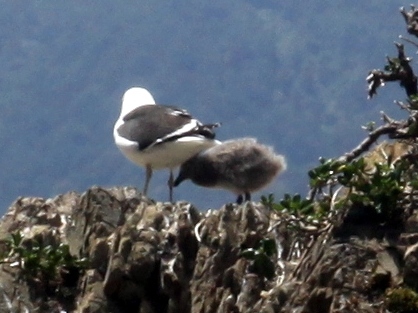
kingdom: Animalia
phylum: Chordata
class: Aves
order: Charadriiformes
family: Laridae
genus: Larus
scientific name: Larus dominicanus
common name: Kelp gull
